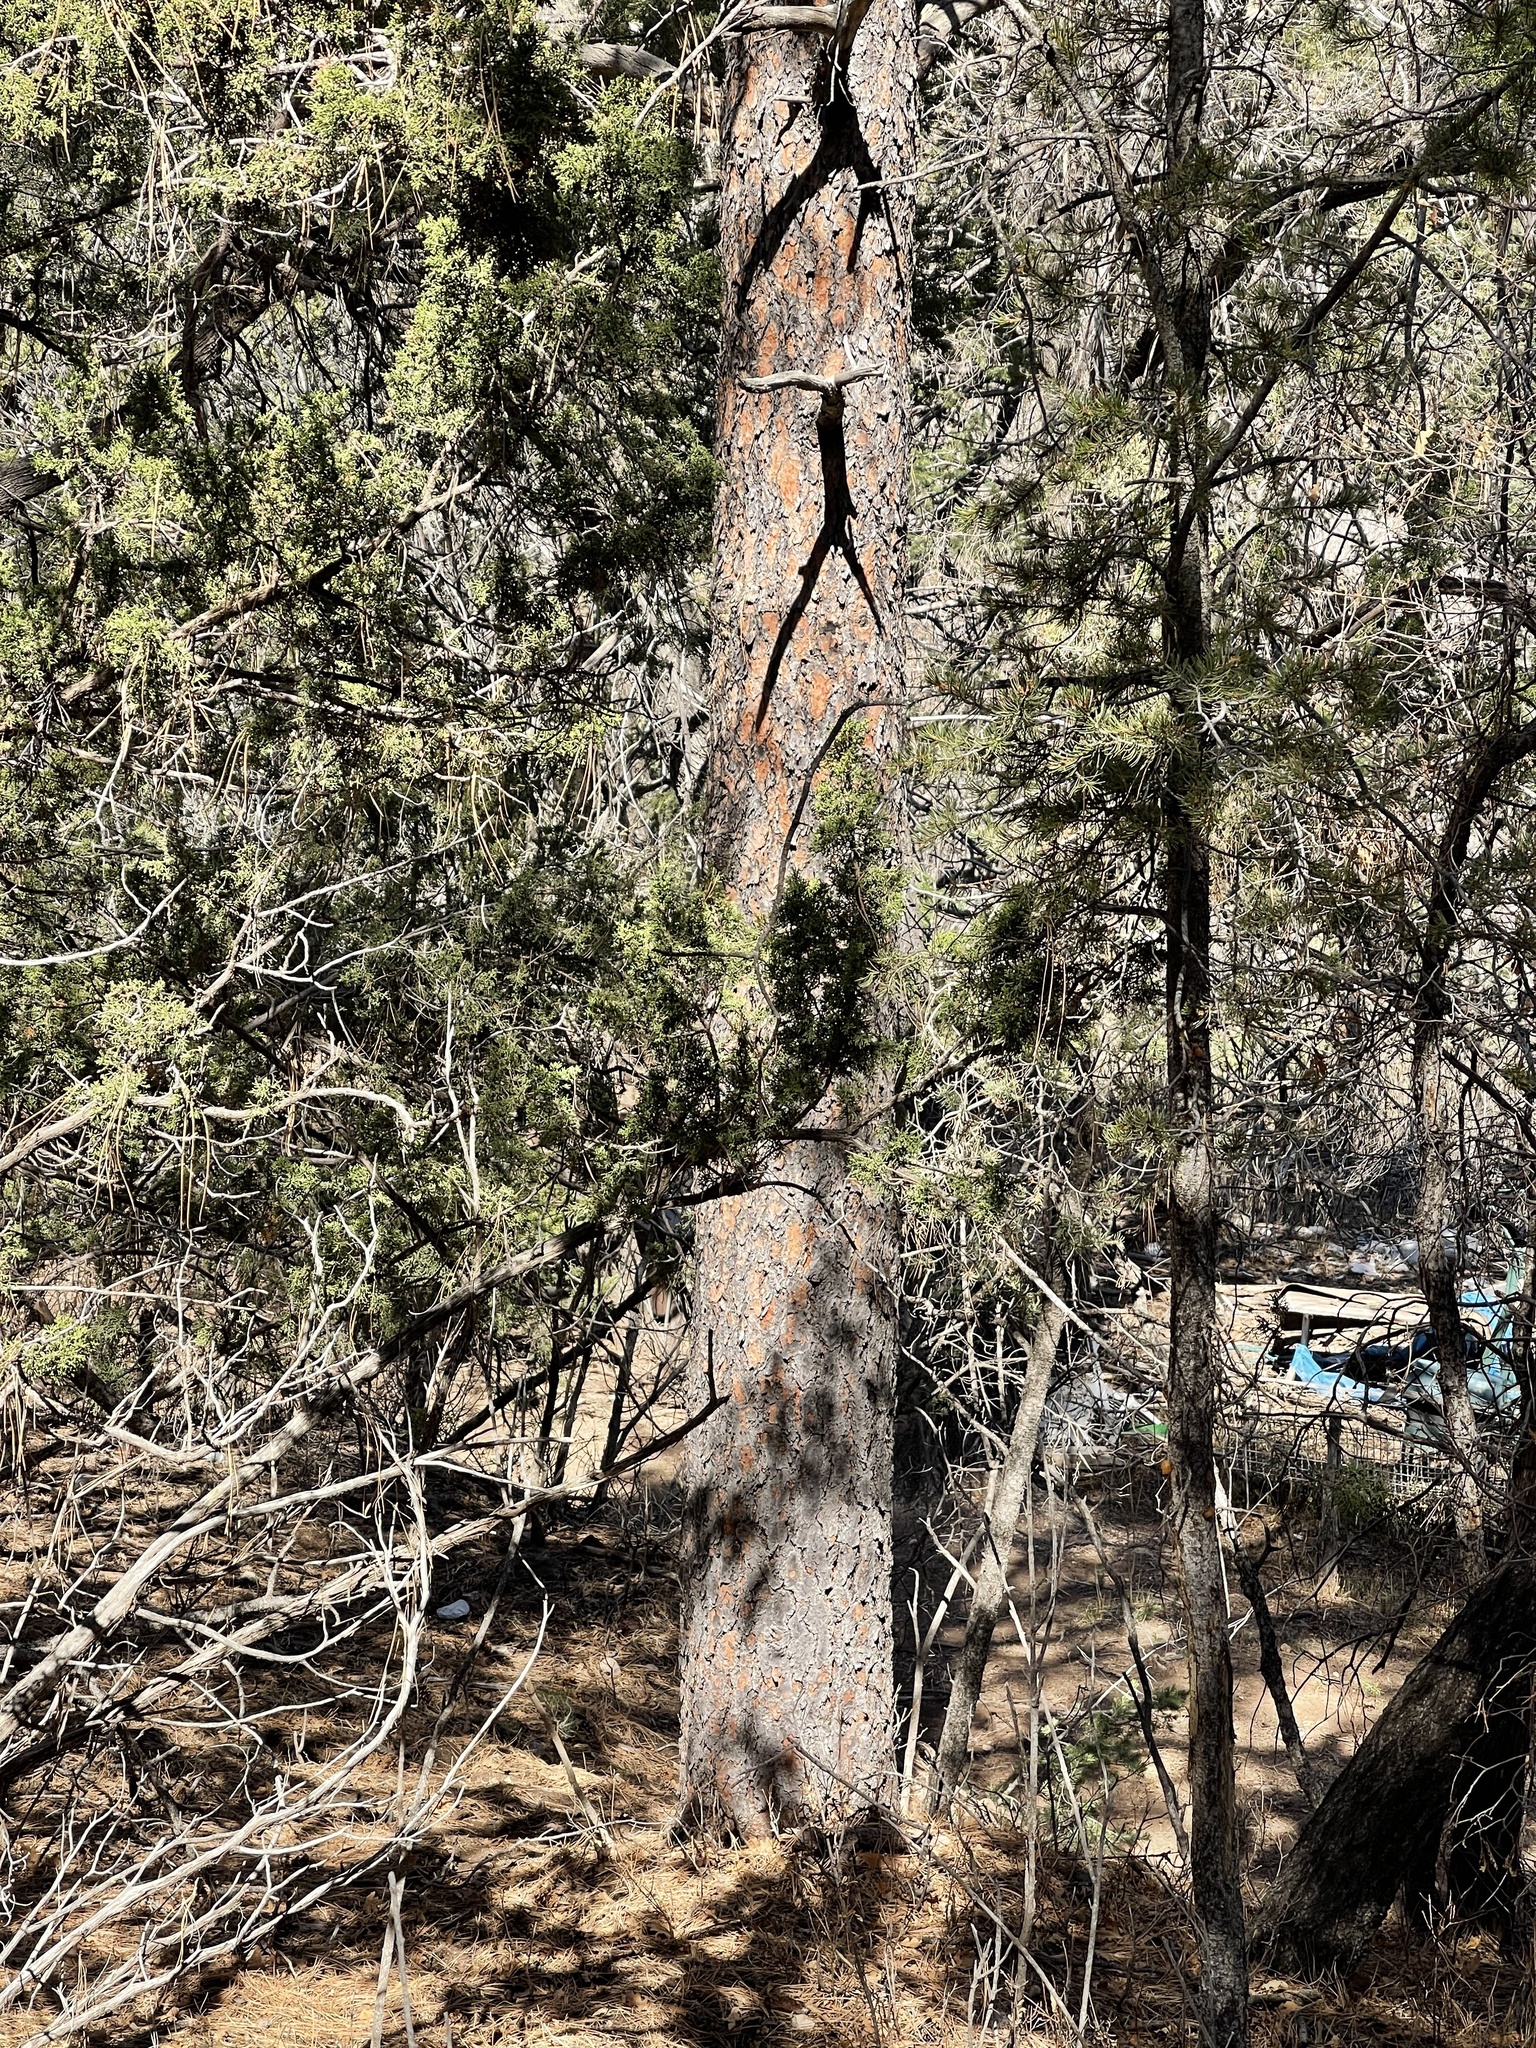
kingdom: Plantae
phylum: Tracheophyta
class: Pinopsida
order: Pinales
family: Pinaceae
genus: Pinus
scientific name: Pinus ponderosa
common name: Western yellow-pine
